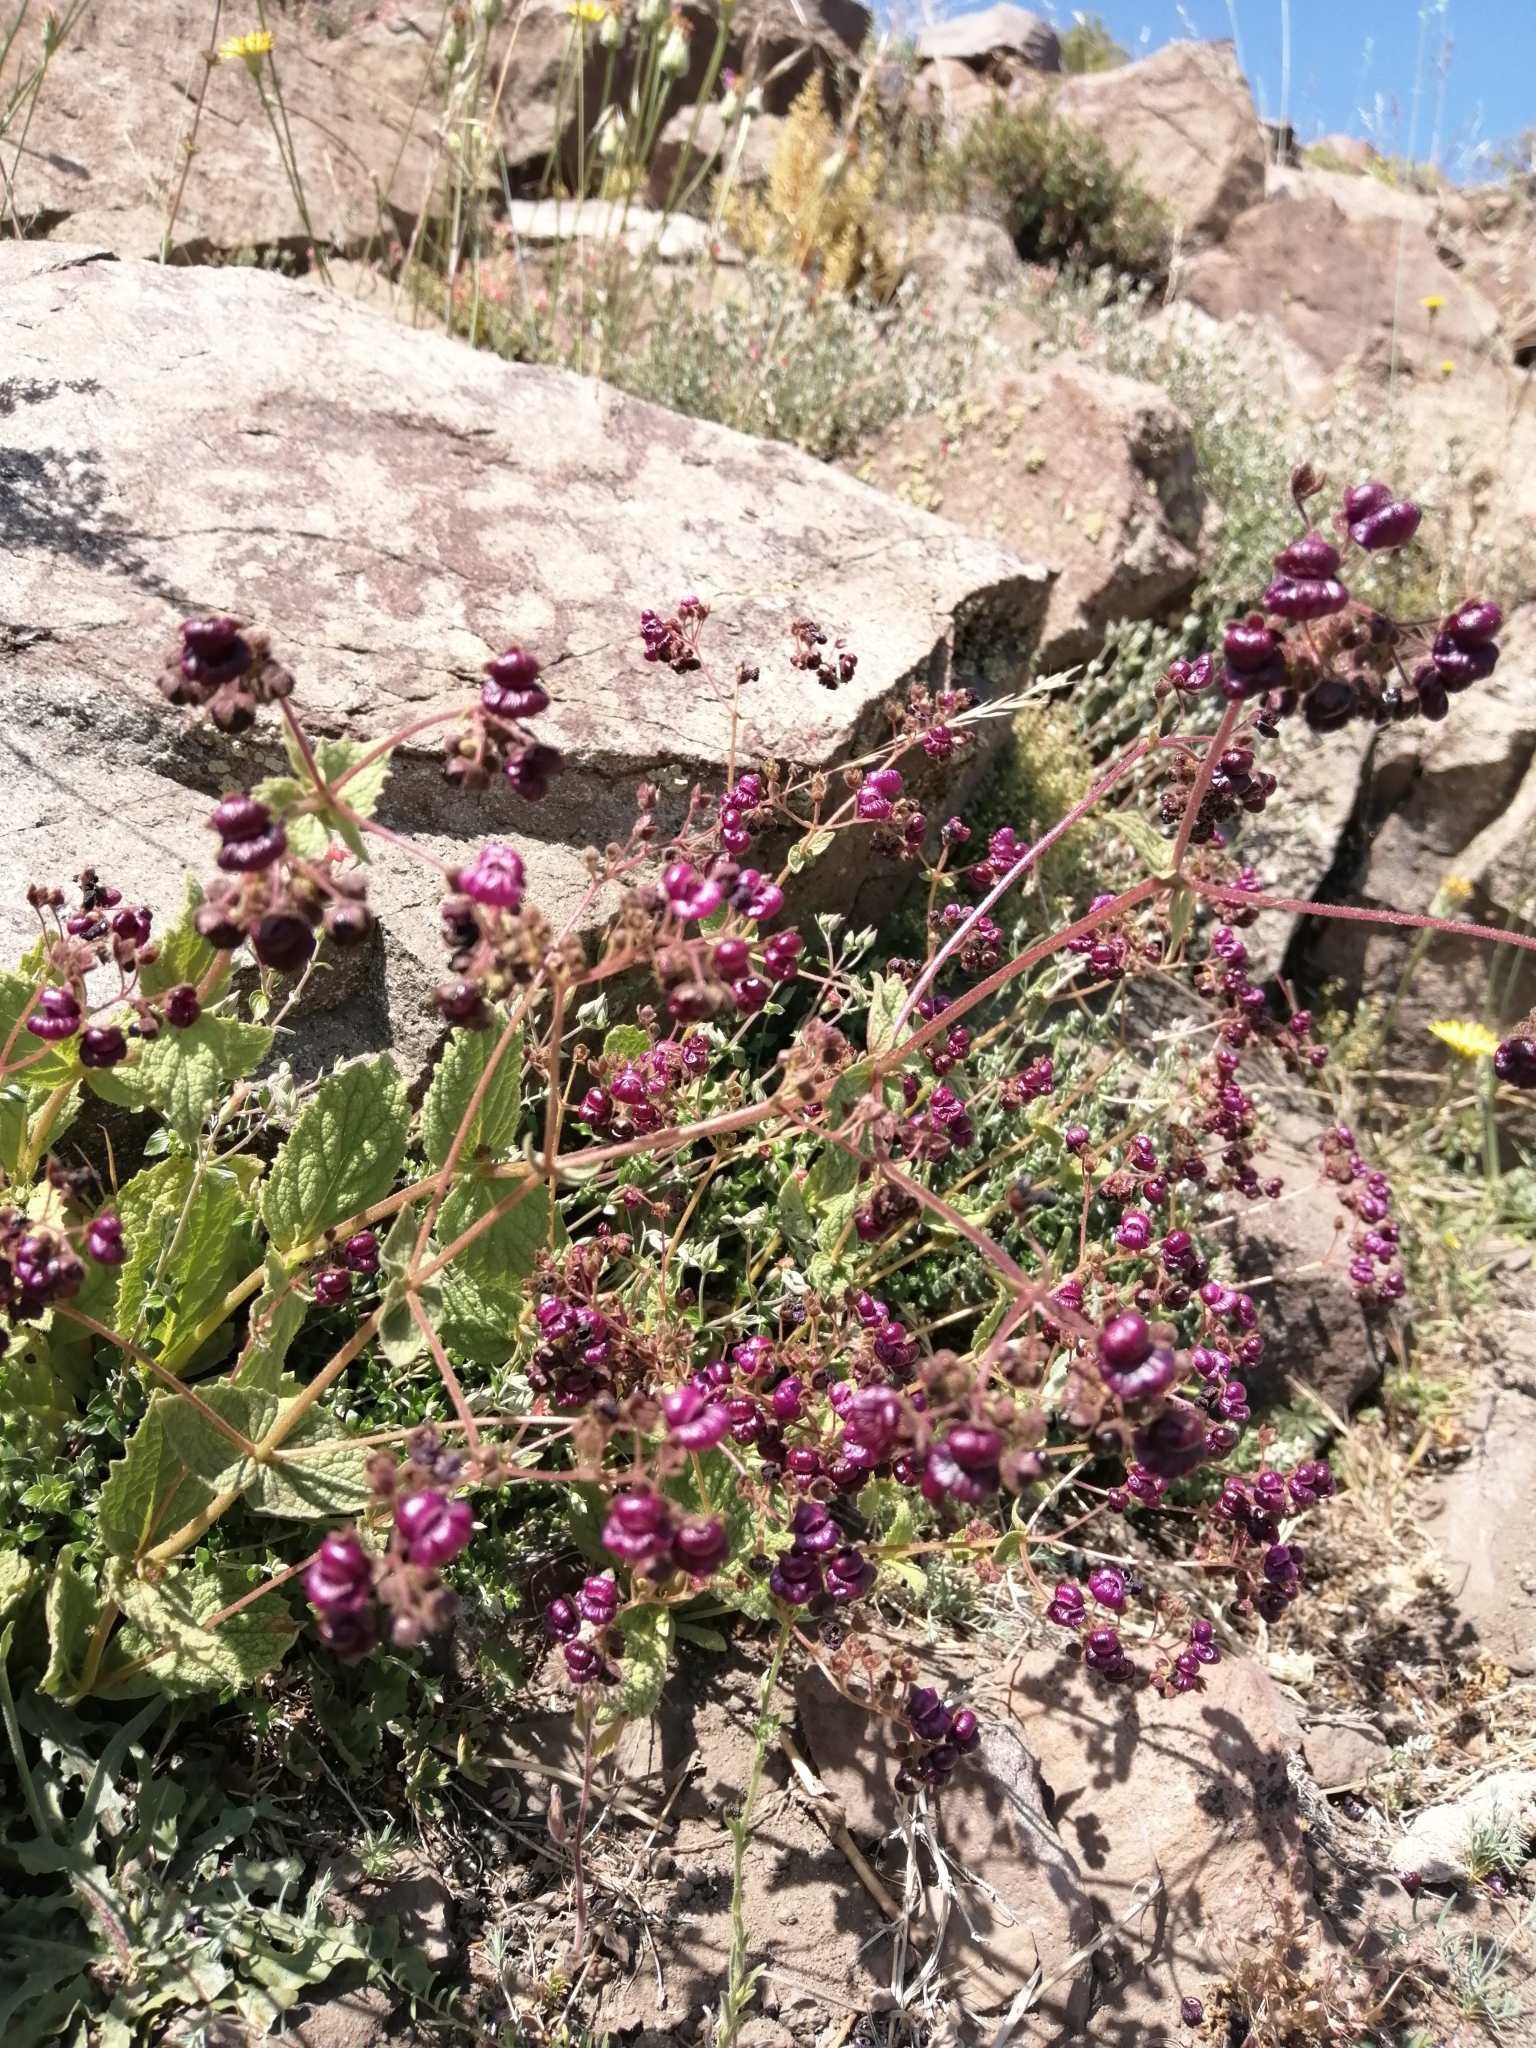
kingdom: Plantae
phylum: Tracheophyta
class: Magnoliopsida
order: Lamiales
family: Calceolariaceae
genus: Calceolaria
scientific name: Calceolaria purpurea
